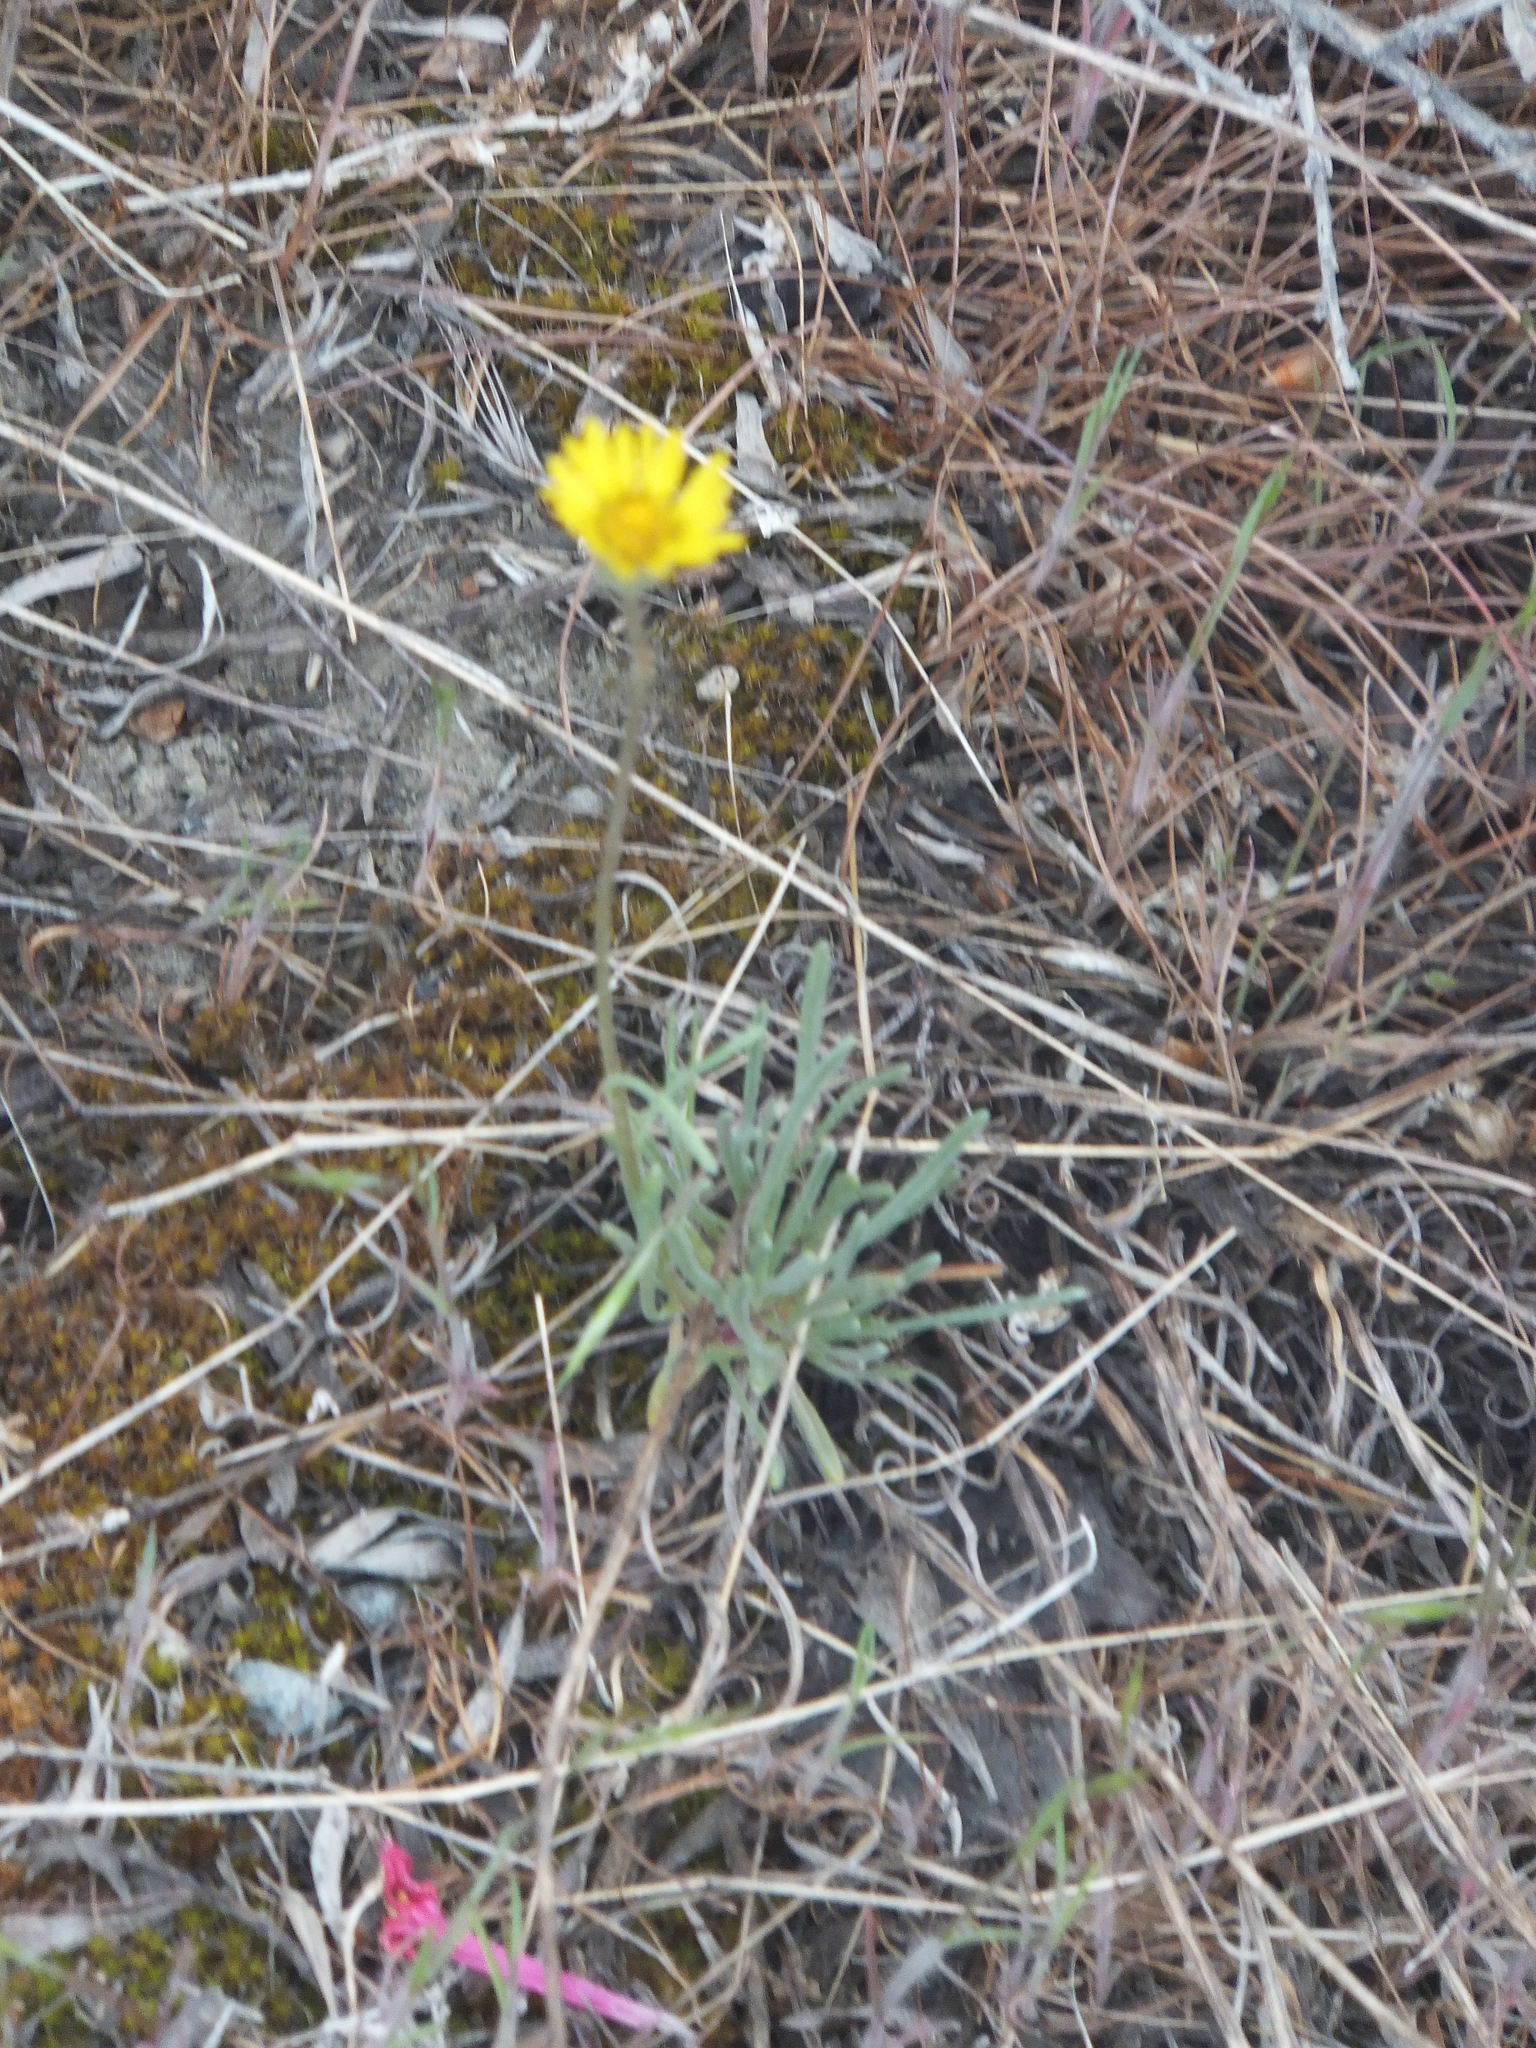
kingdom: Plantae
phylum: Tracheophyta
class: Magnoliopsida
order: Asterales
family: Asteraceae
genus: Erigeron
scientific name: Erigeron linearis
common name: Desert yellow fleabane
